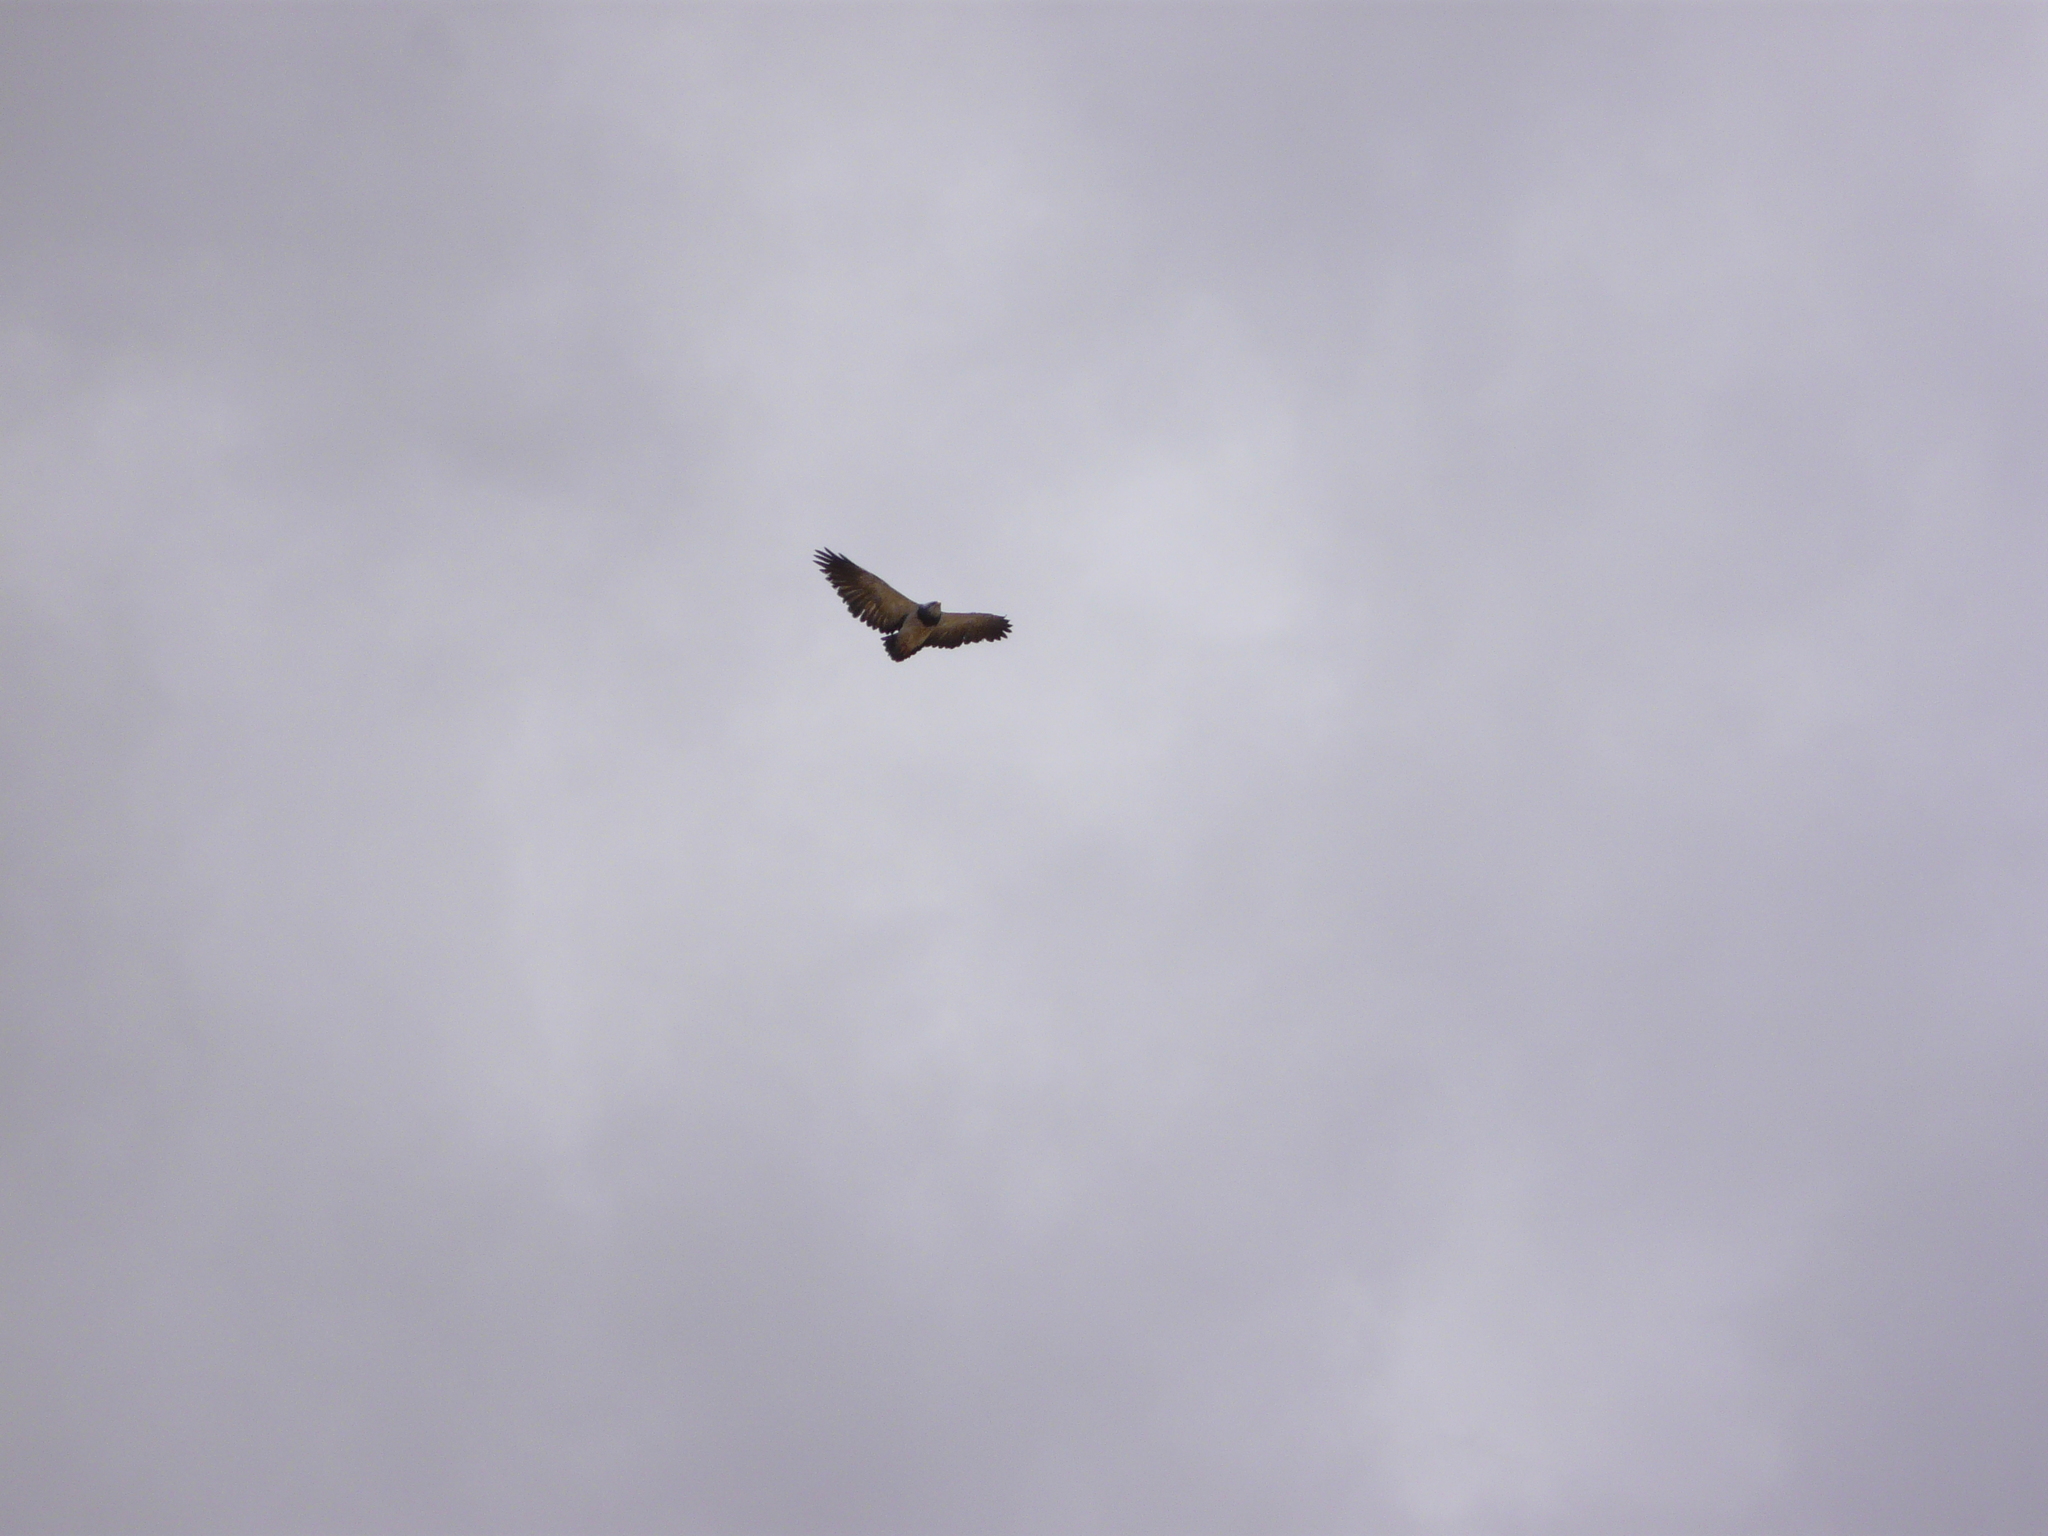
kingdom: Animalia
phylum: Chordata
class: Aves
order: Accipitriformes
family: Accipitridae
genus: Geranoaetus
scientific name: Geranoaetus melanoleucus
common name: Black-chested buzzard-eagle
